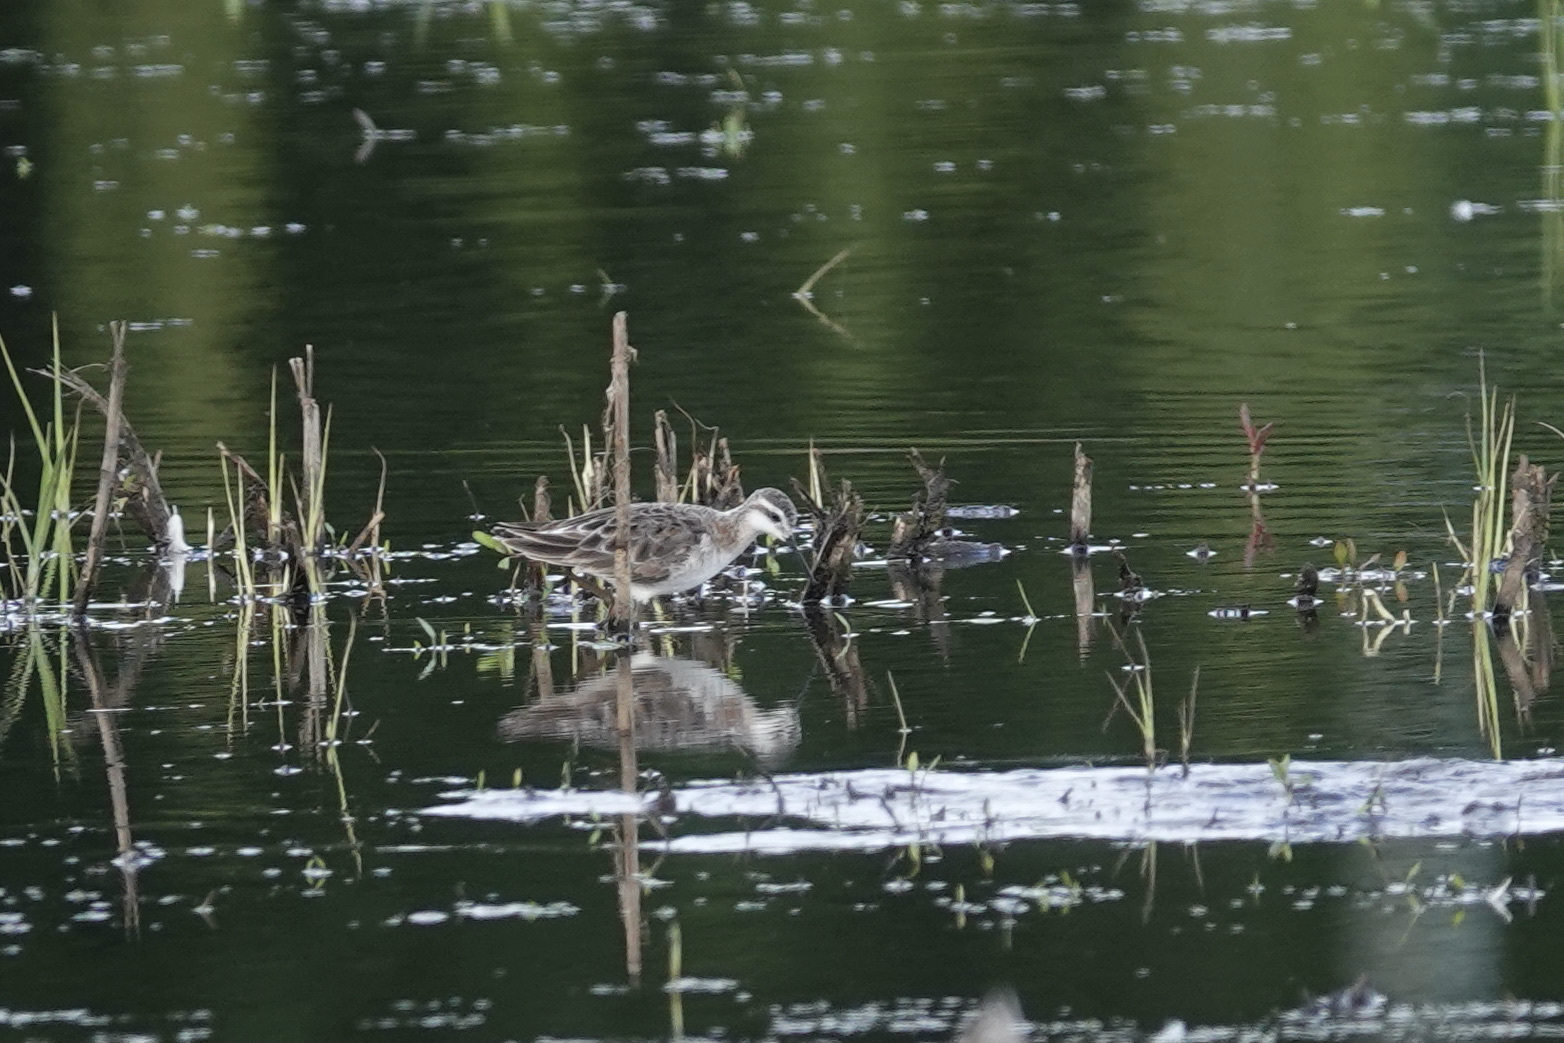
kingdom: Animalia
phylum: Chordata
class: Aves
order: Charadriiformes
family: Scolopacidae
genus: Phalaropus
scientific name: Phalaropus tricolor
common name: Wilson's phalarope
